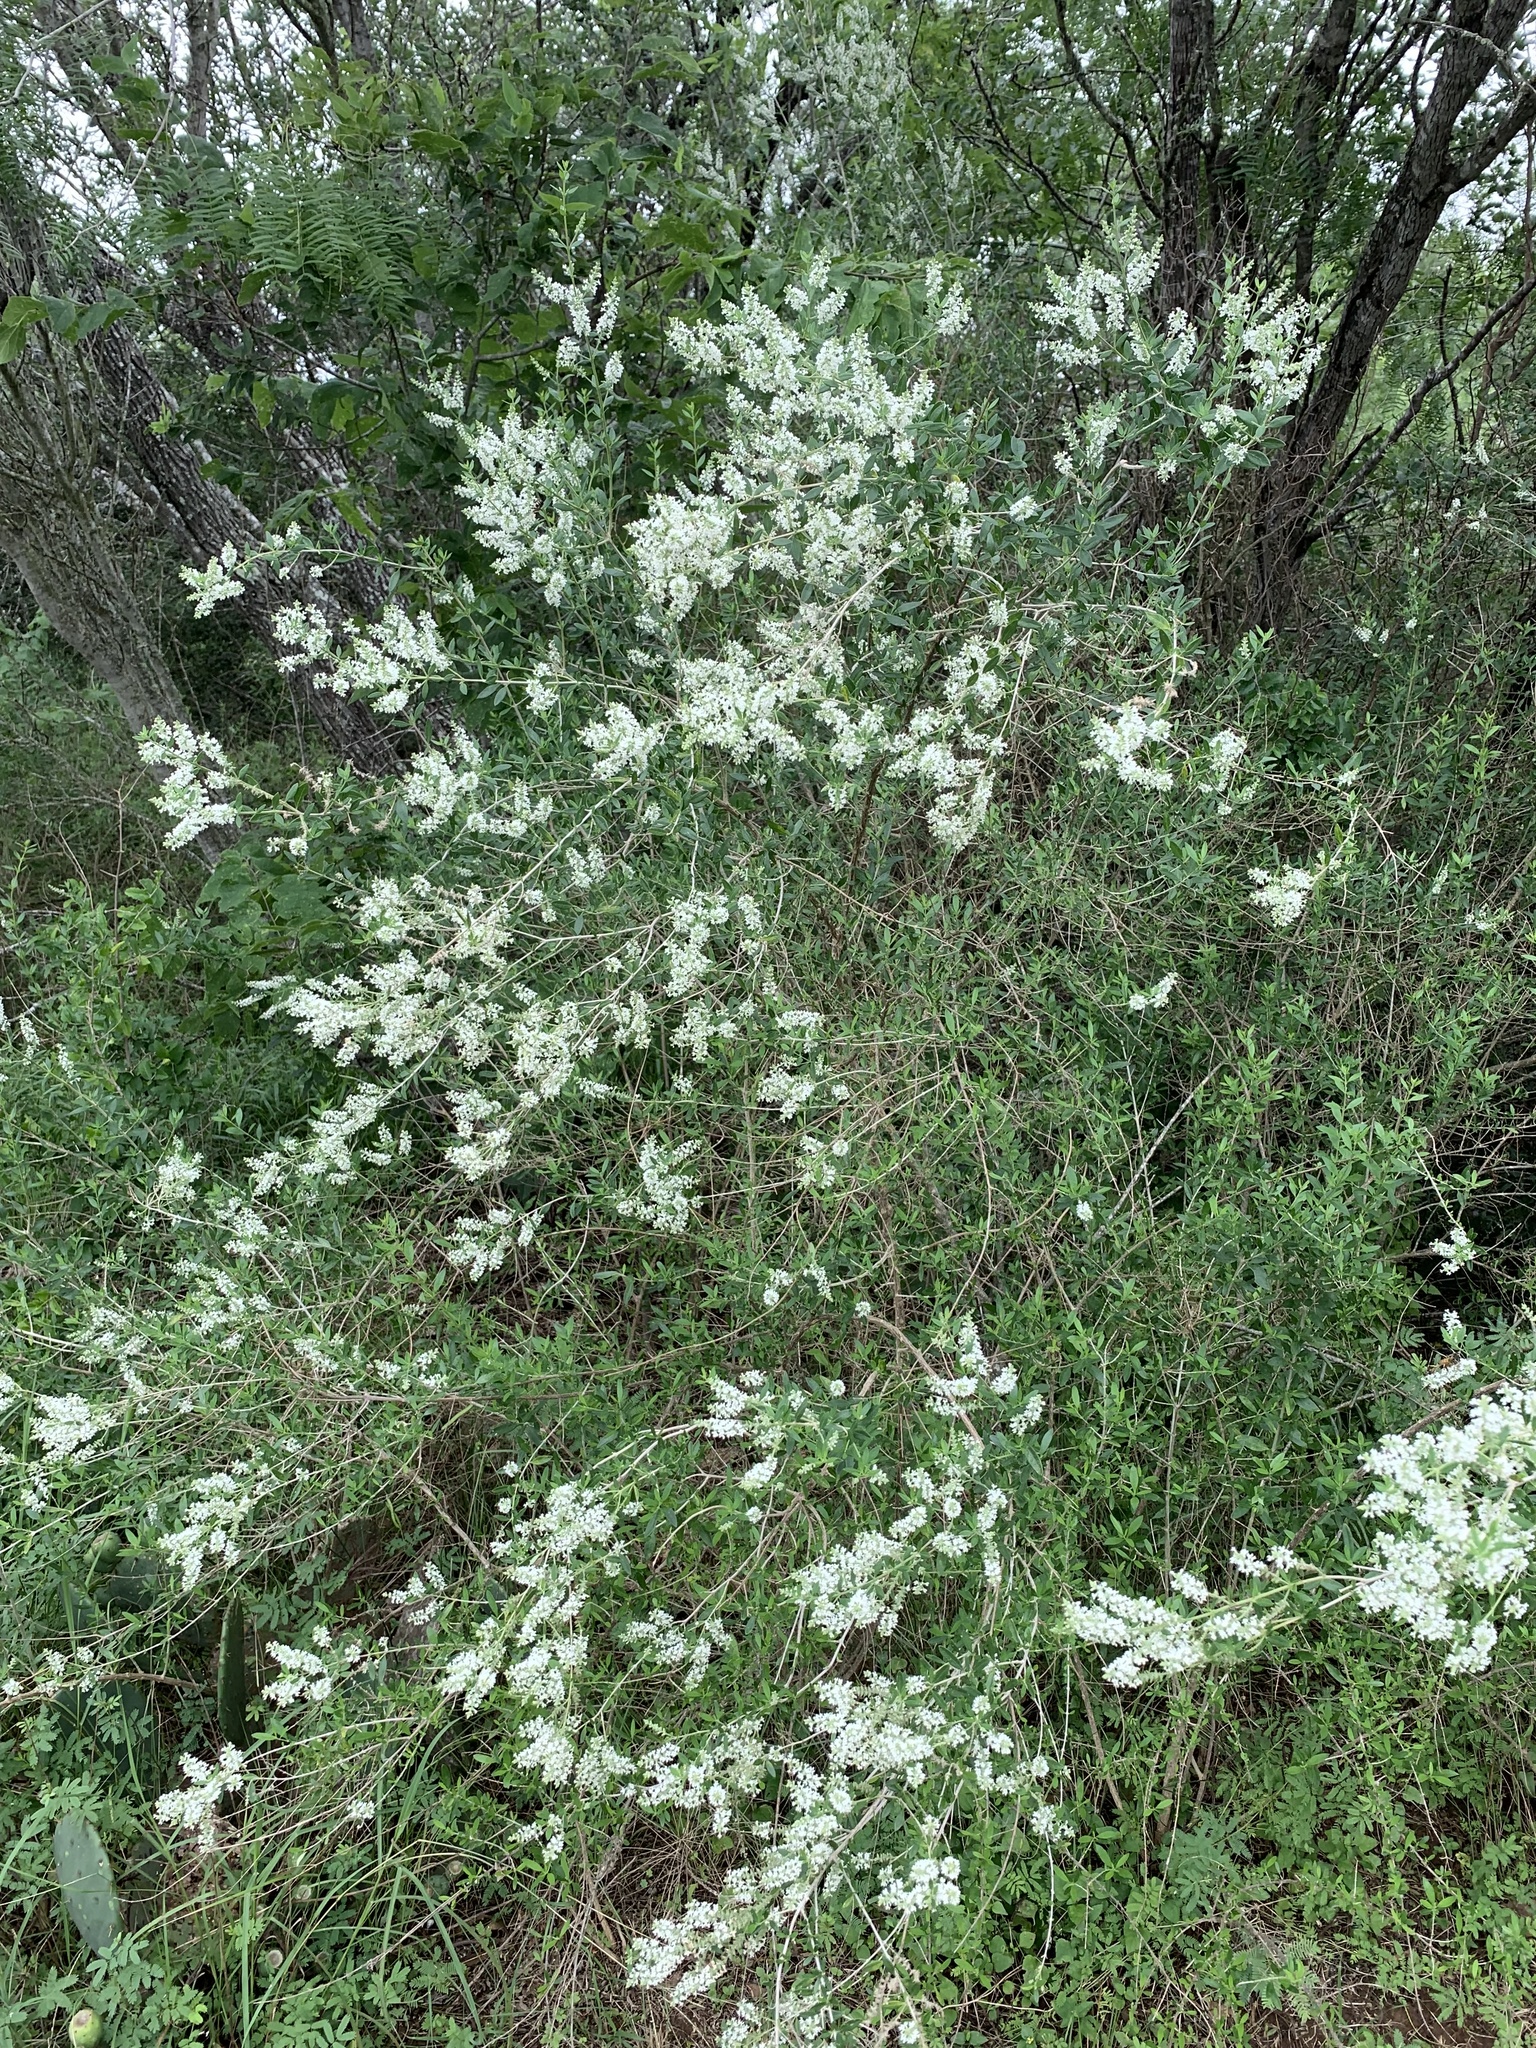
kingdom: Plantae
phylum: Tracheophyta
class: Magnoliopsida
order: Lamiales
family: Verbenaceae
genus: Aloysia
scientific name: Aloysia gratissima
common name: Common bee-brush
